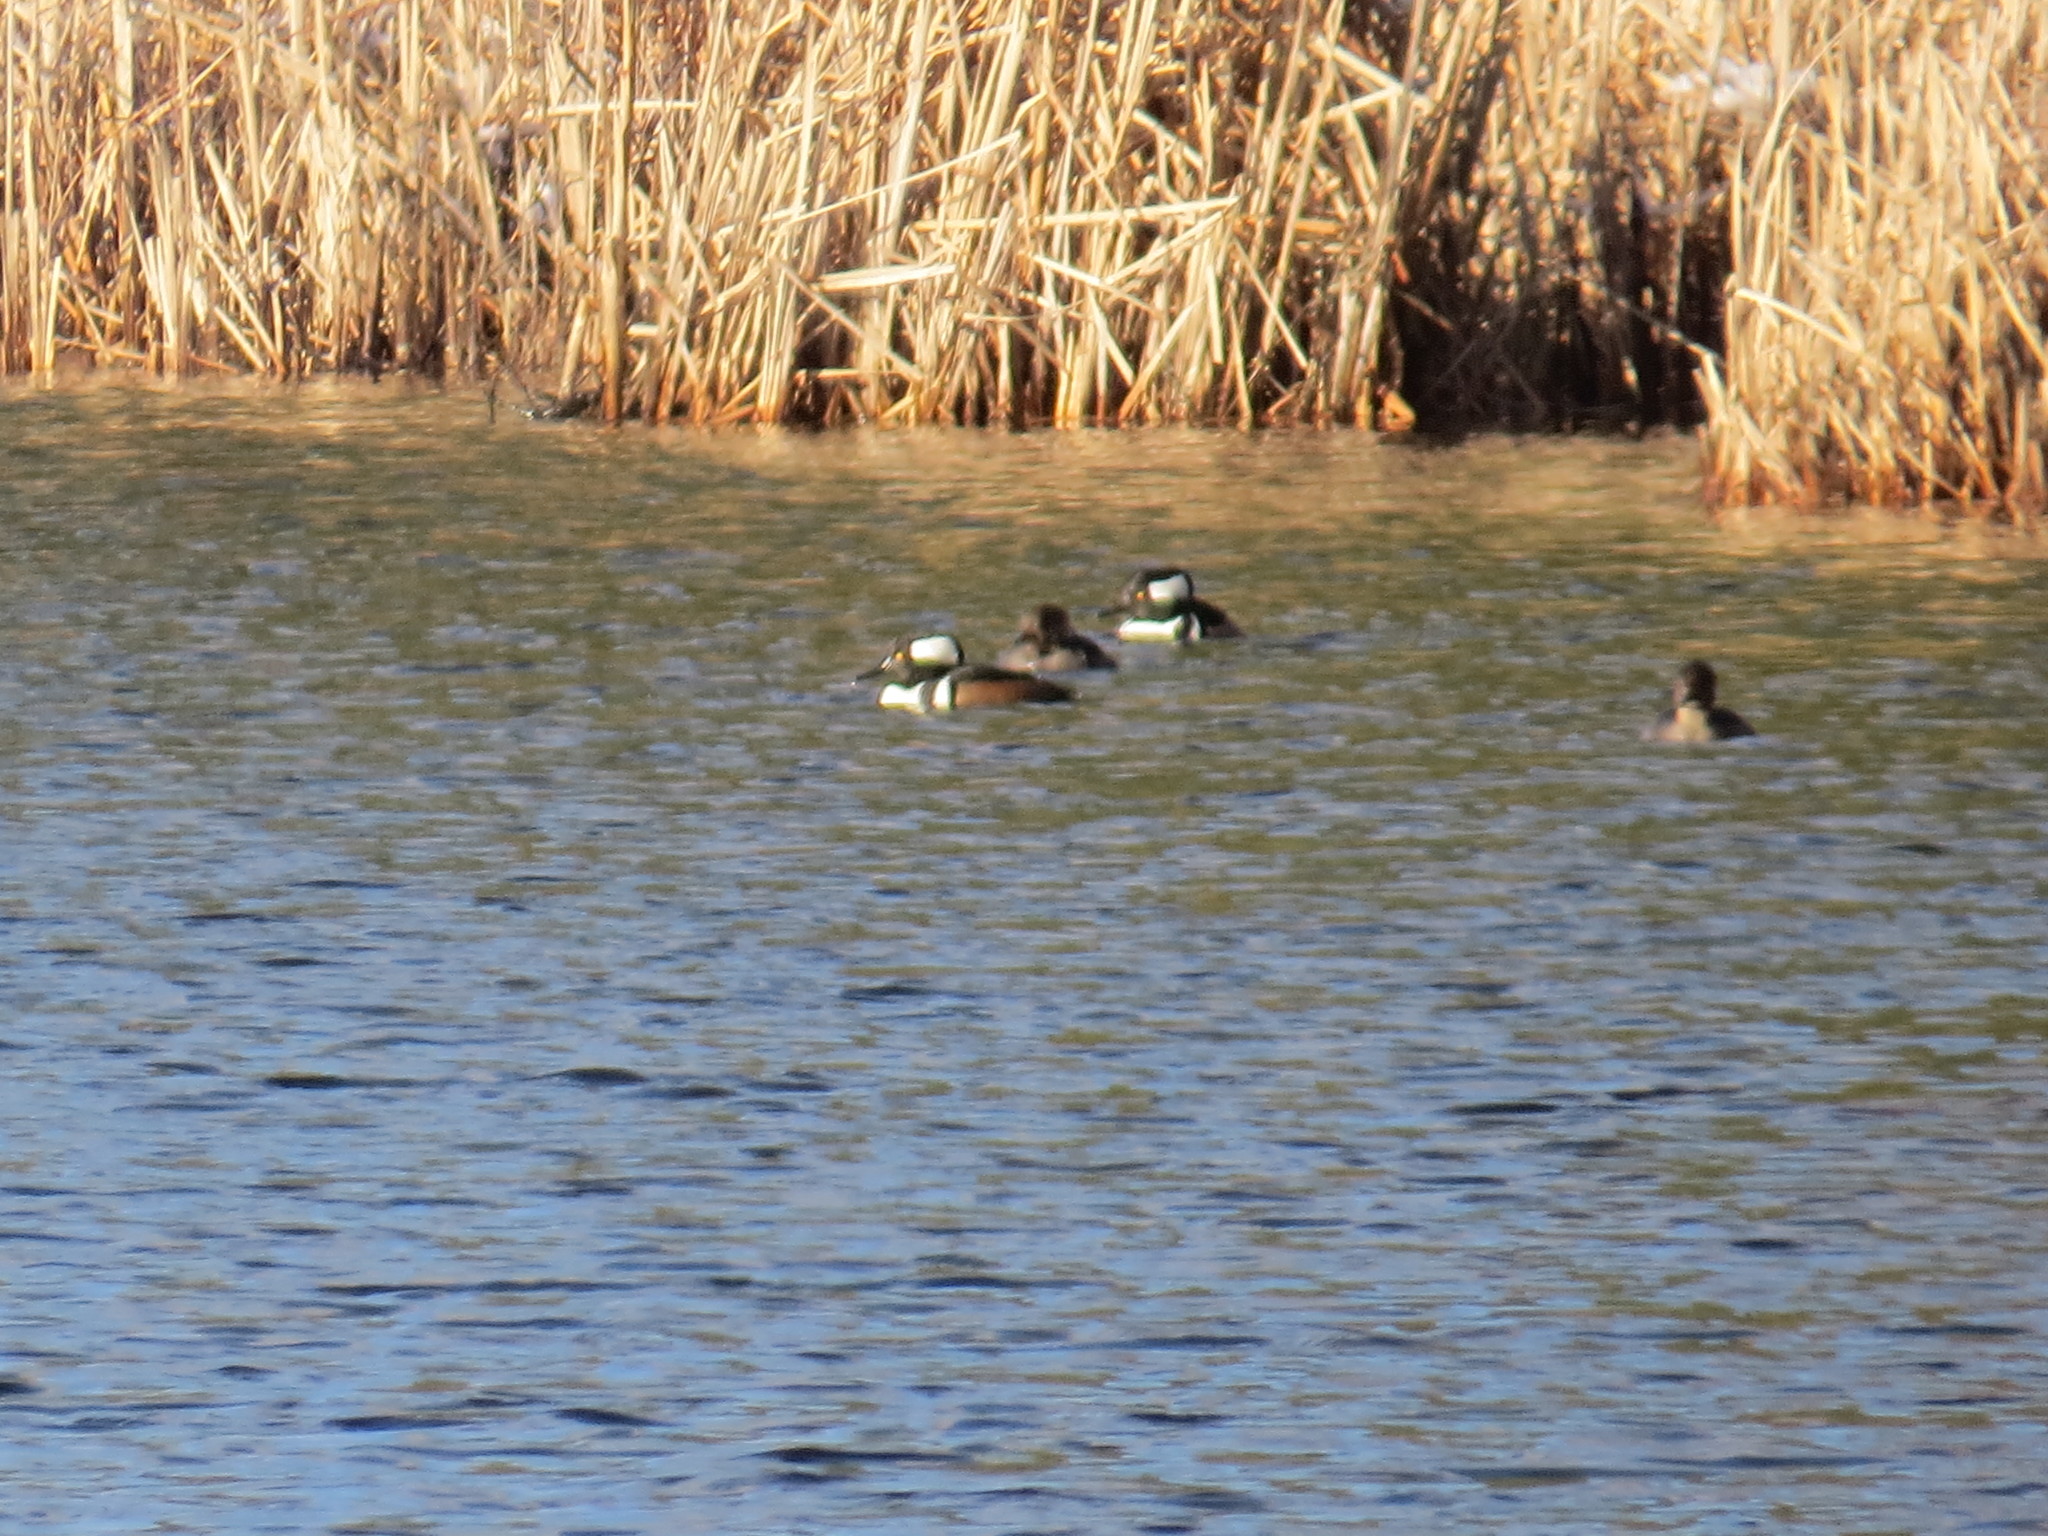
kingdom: Animalia
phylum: Chordata
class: Aves
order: Anseriformes
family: Anatidae
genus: Lophodytes
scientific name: Lophodytes cucullatus
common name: Hooded merganser
